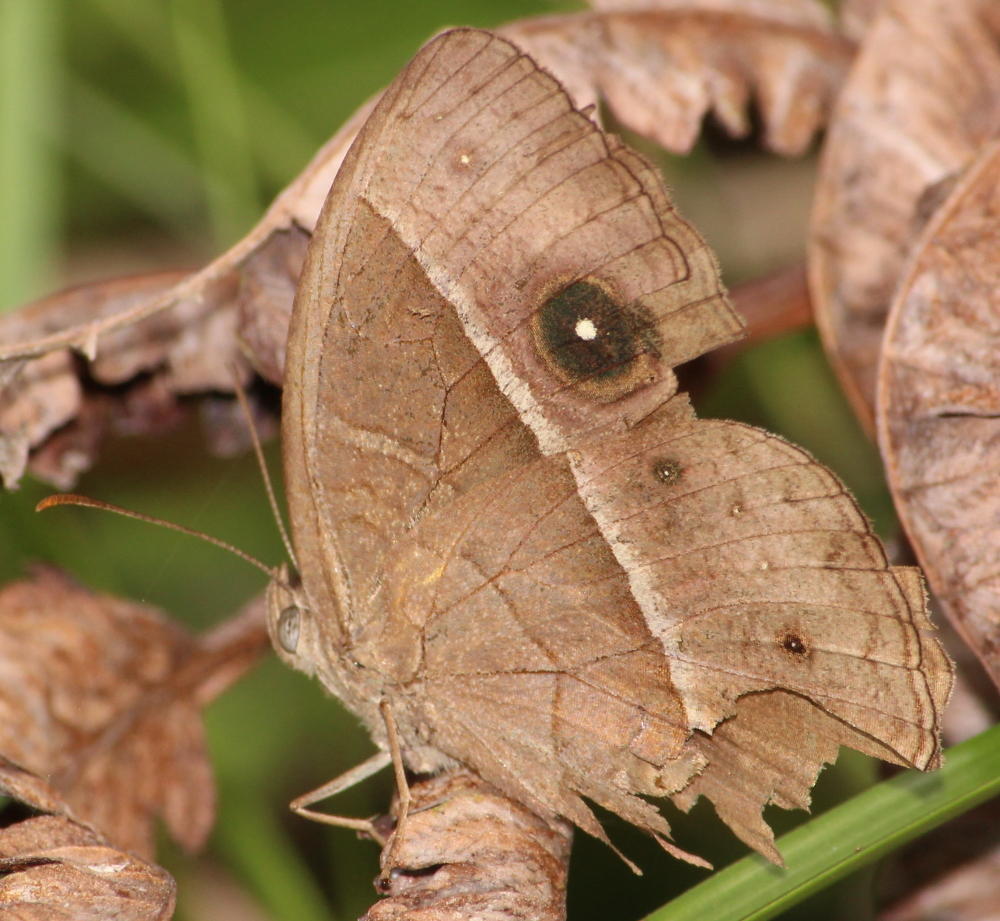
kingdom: Animalia
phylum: Arthropoda
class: Insecta
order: Lepidoptera
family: Nymphalidae
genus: Mycalesis
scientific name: Mycalesis rhacotis
